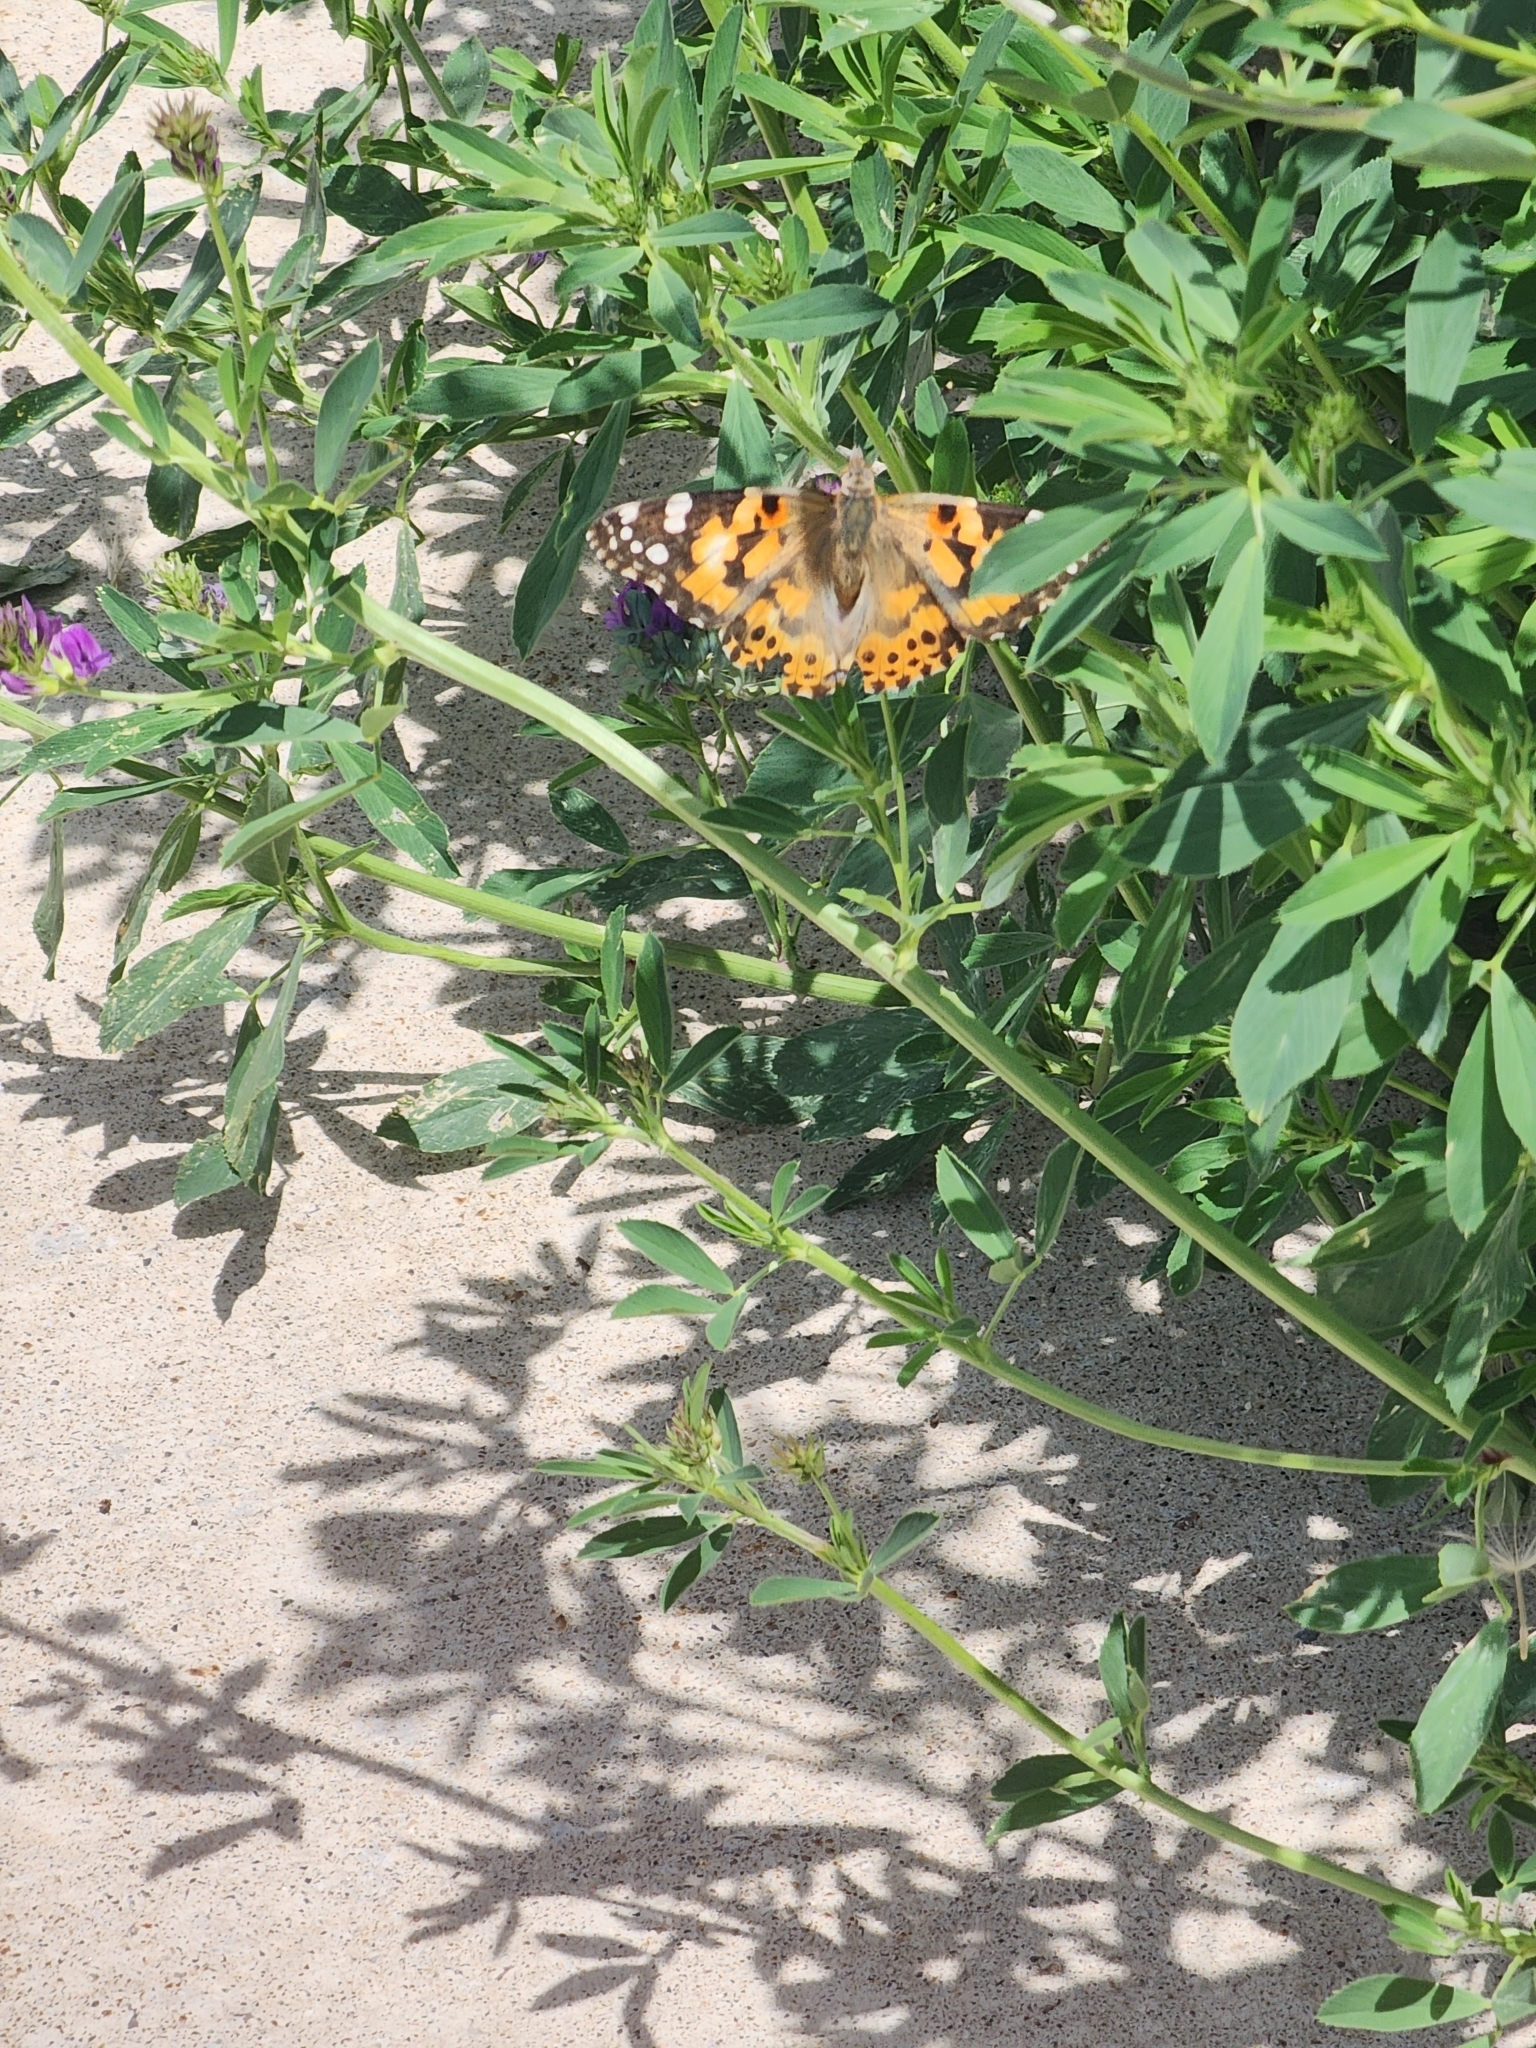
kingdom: Animalia
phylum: Arthropoda
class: Insecta
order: Lepidoptera
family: Nymphalidae
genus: Vanessa
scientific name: Vanessa cardui
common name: Painted lady
